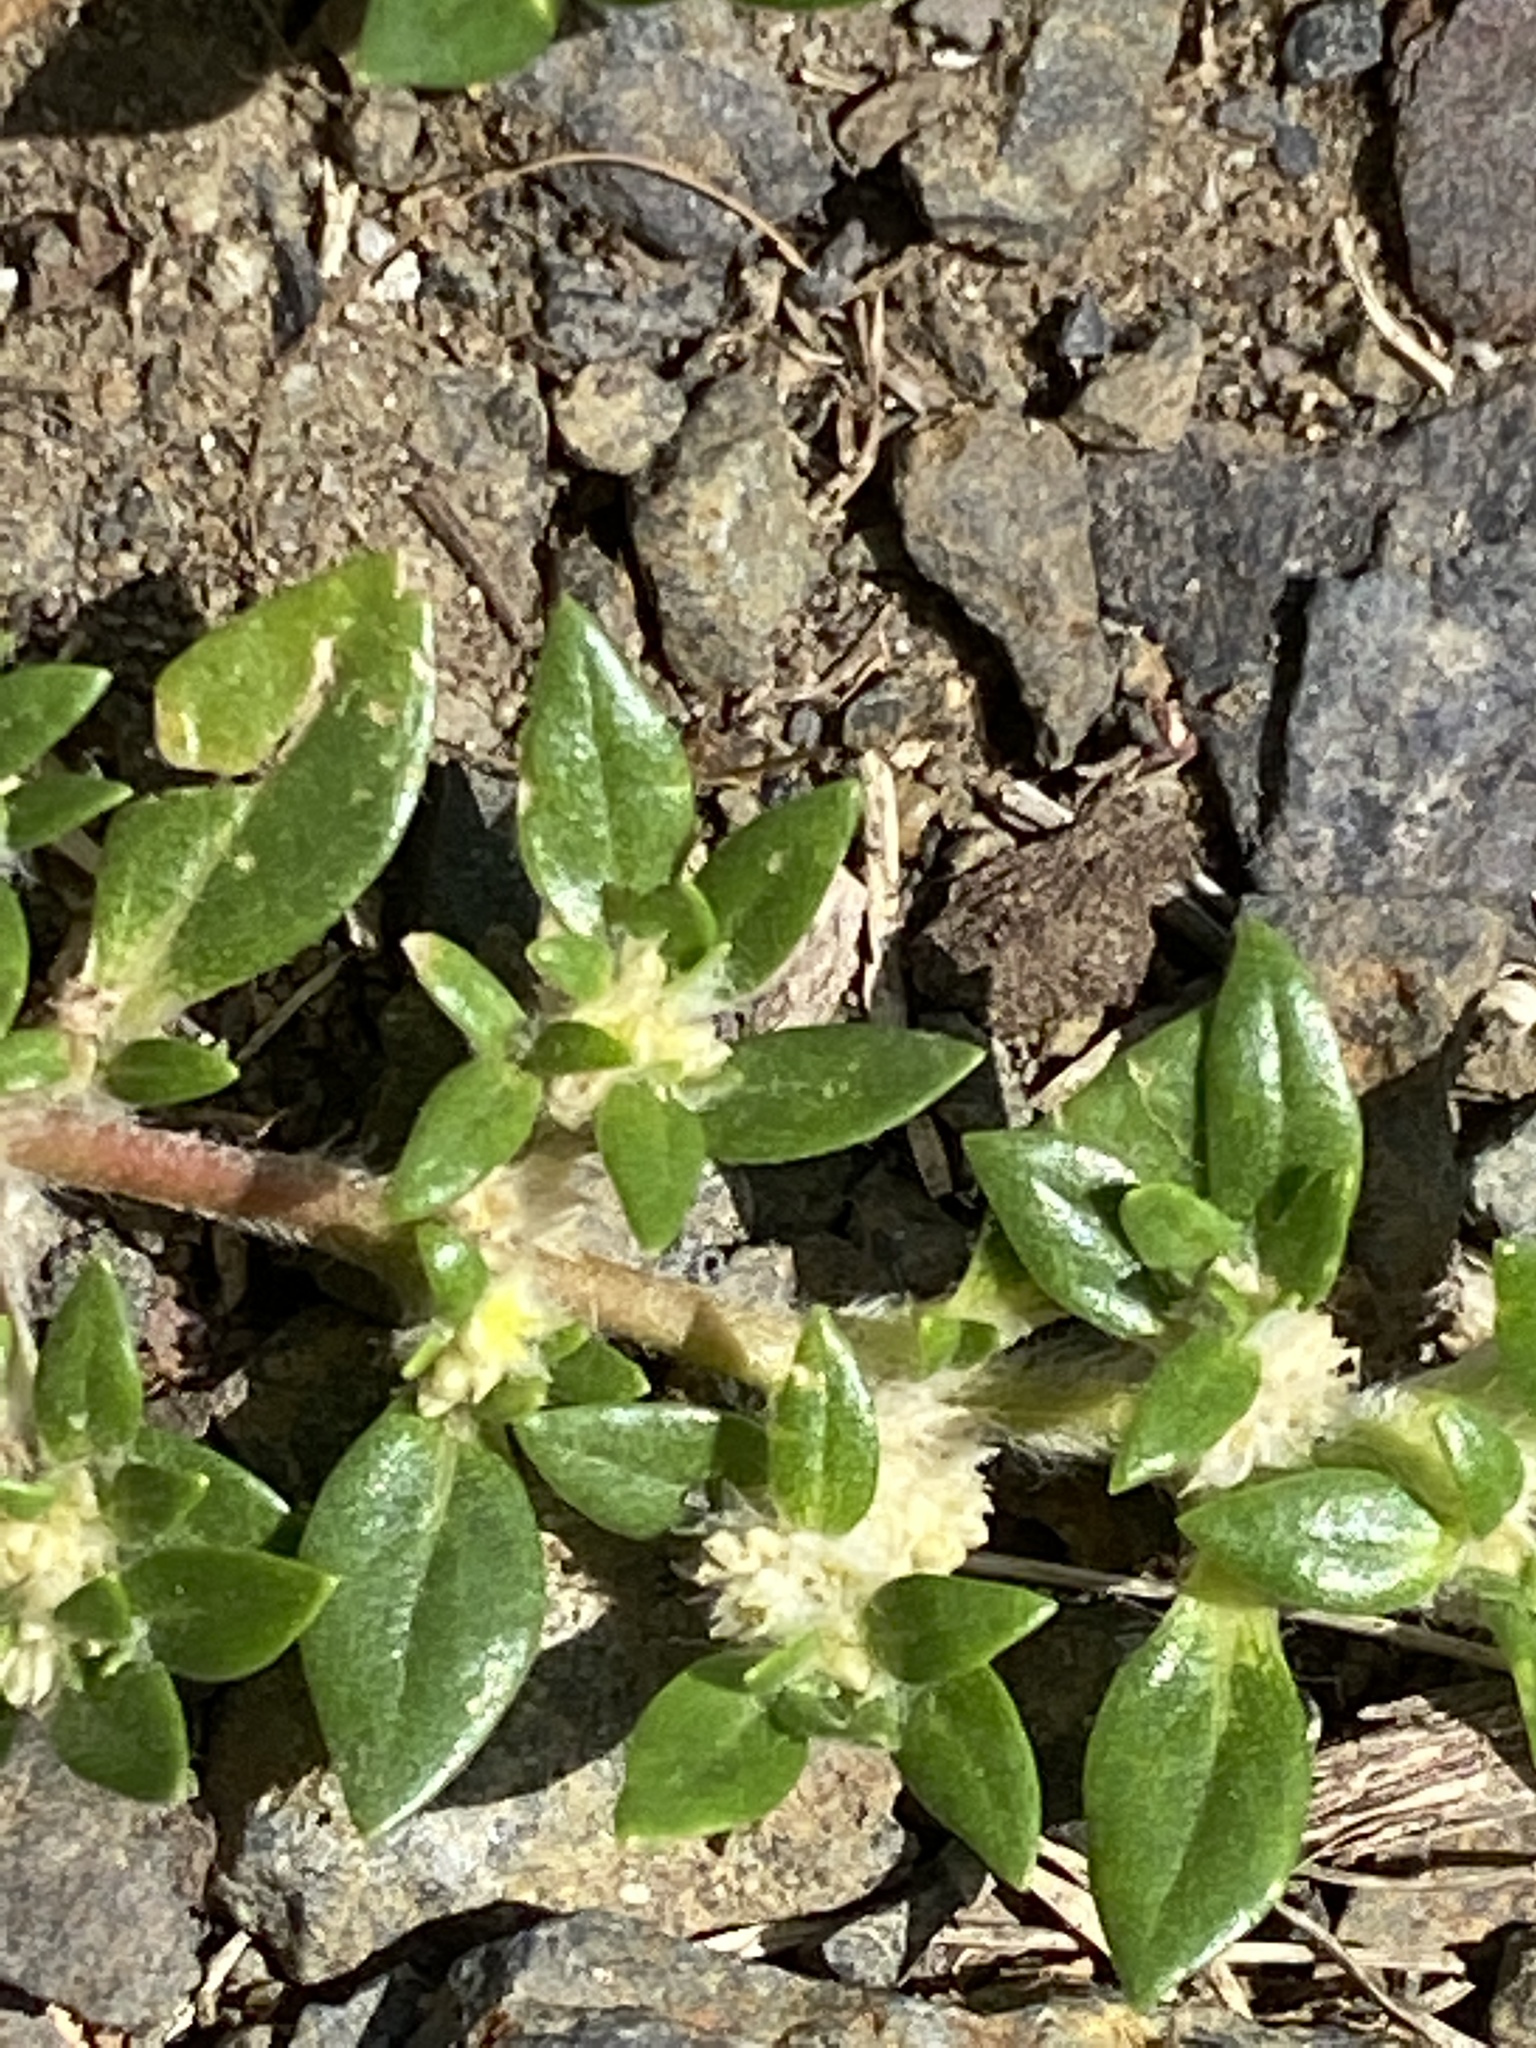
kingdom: Plantae
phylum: Tracheophyta
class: Magnoliopsida
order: Caryophyllales
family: Amaranthaceae
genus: Guilleminea
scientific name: Guilleminea densa
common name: Small matweed
